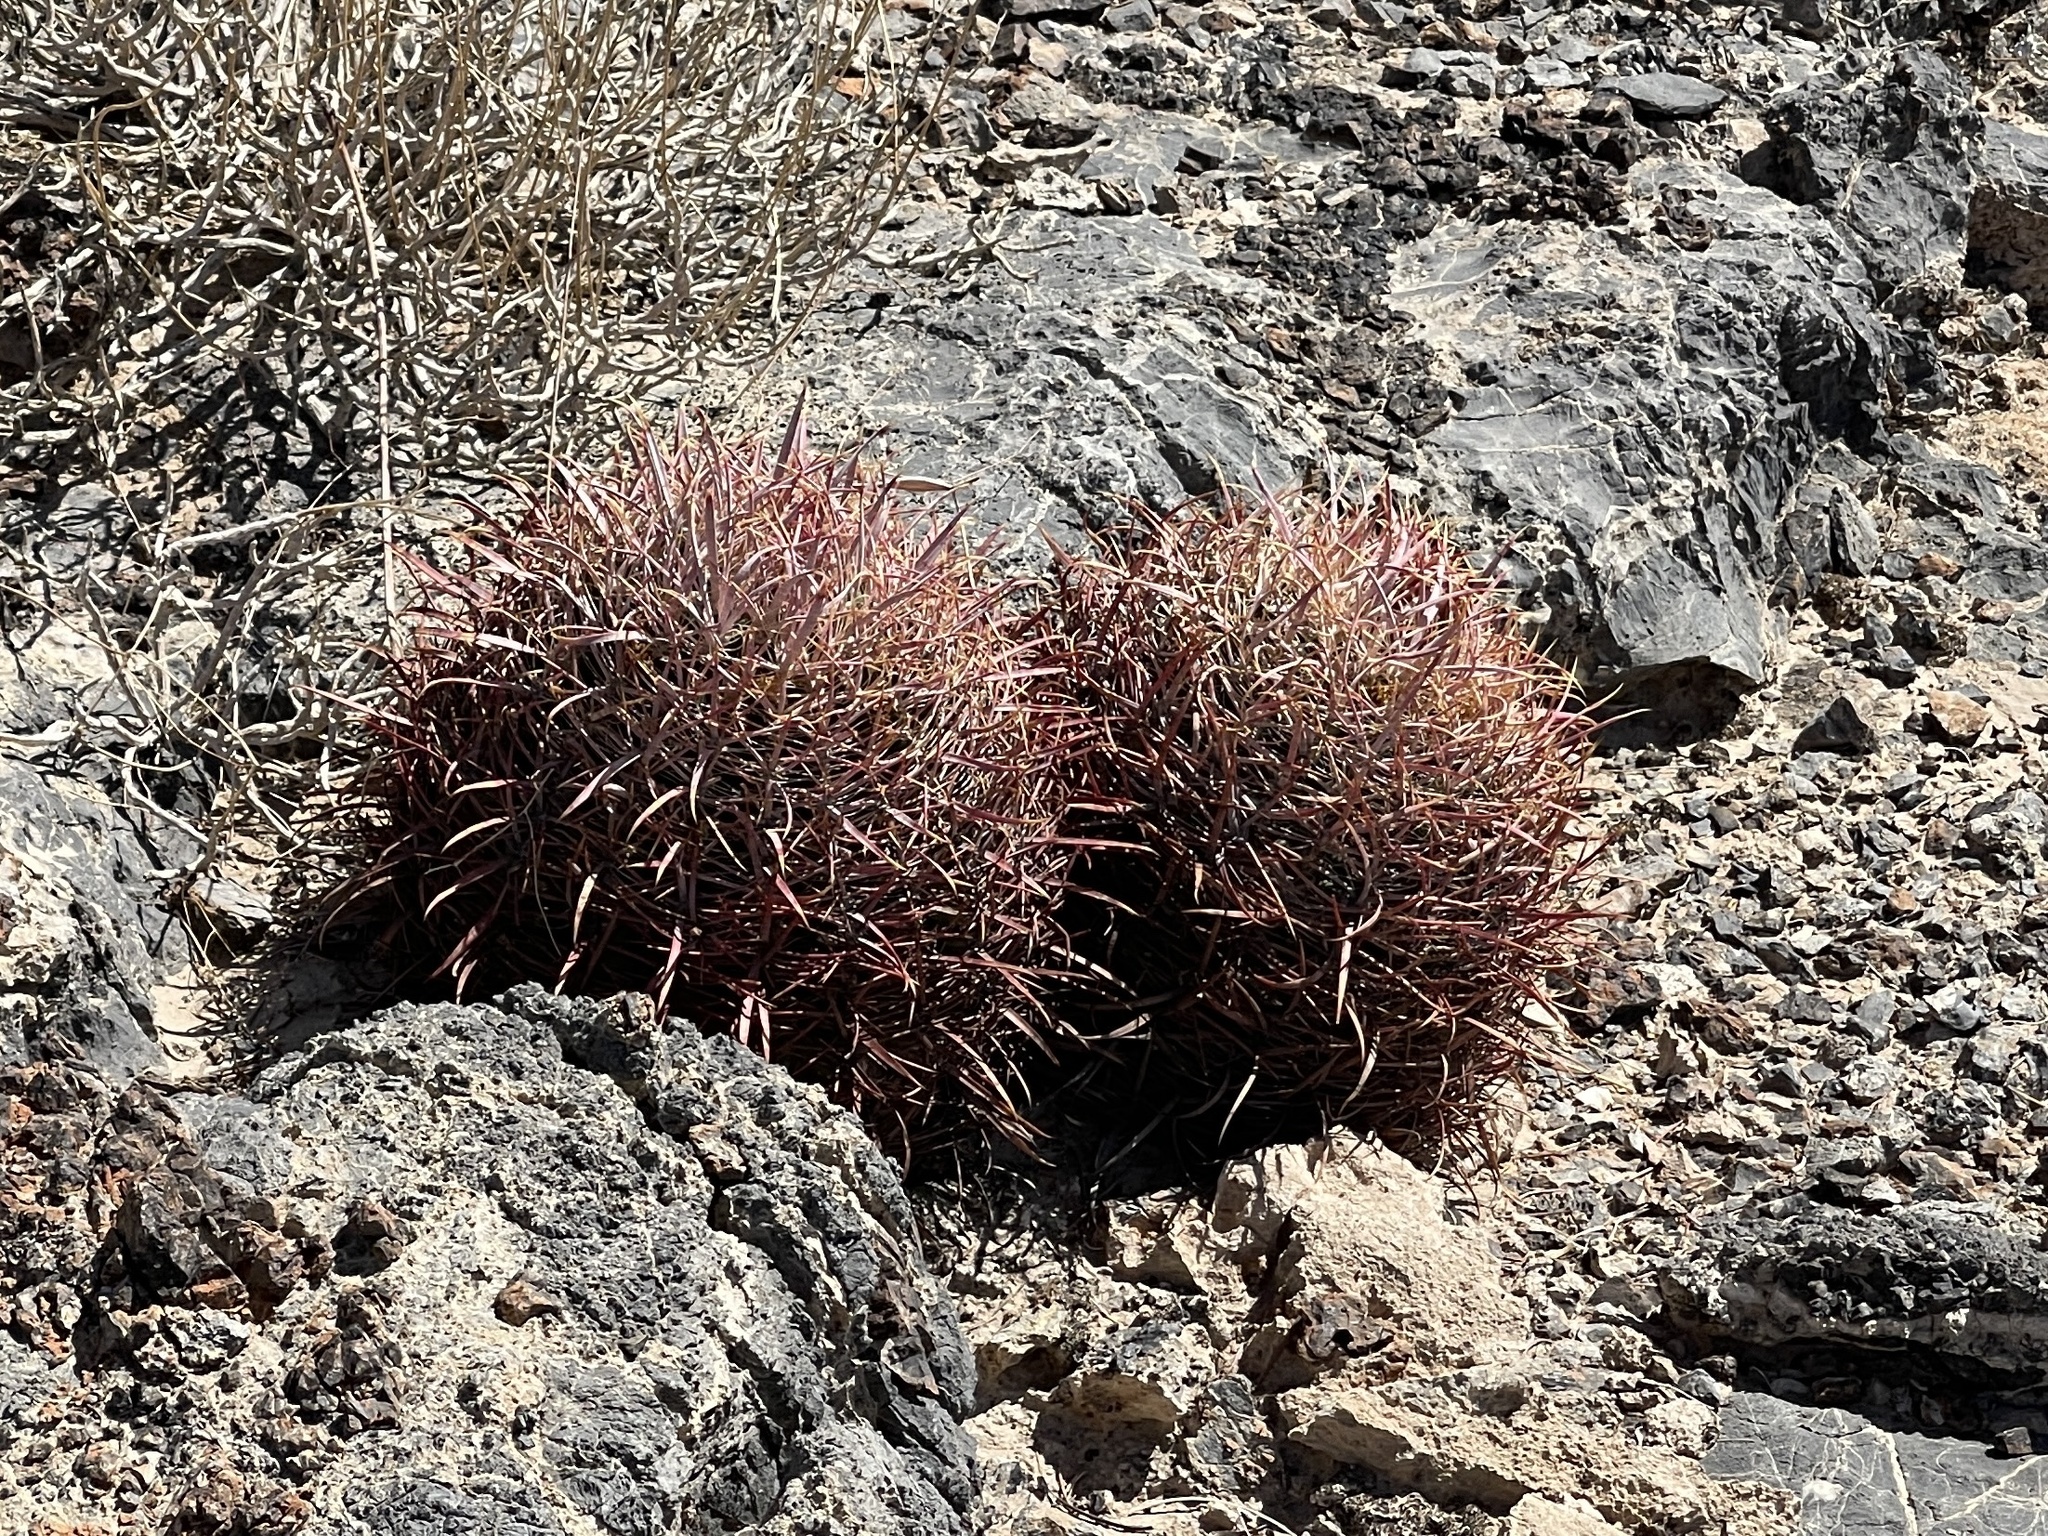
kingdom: Plantae
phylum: Tracheophyta
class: Magnoliopsida
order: Caryophyllales
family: Cactaceae
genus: Ferocactus
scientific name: Ferocactus cylindraceus
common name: California barrel cactus
